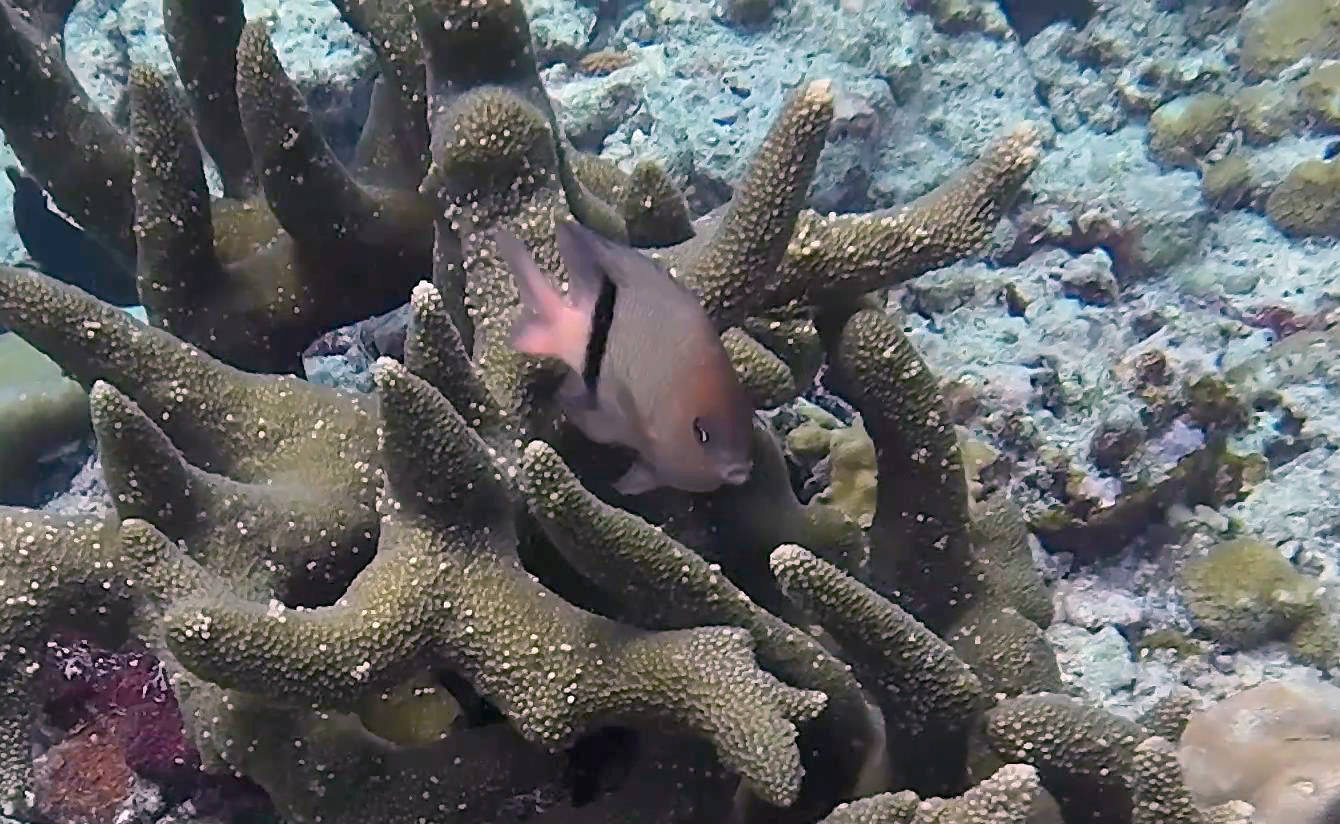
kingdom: Animalia
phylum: Chordata
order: Perciformes
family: Pomacentridae
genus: Plectroglyphidodon
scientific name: Plectroglyphidodon dickii
